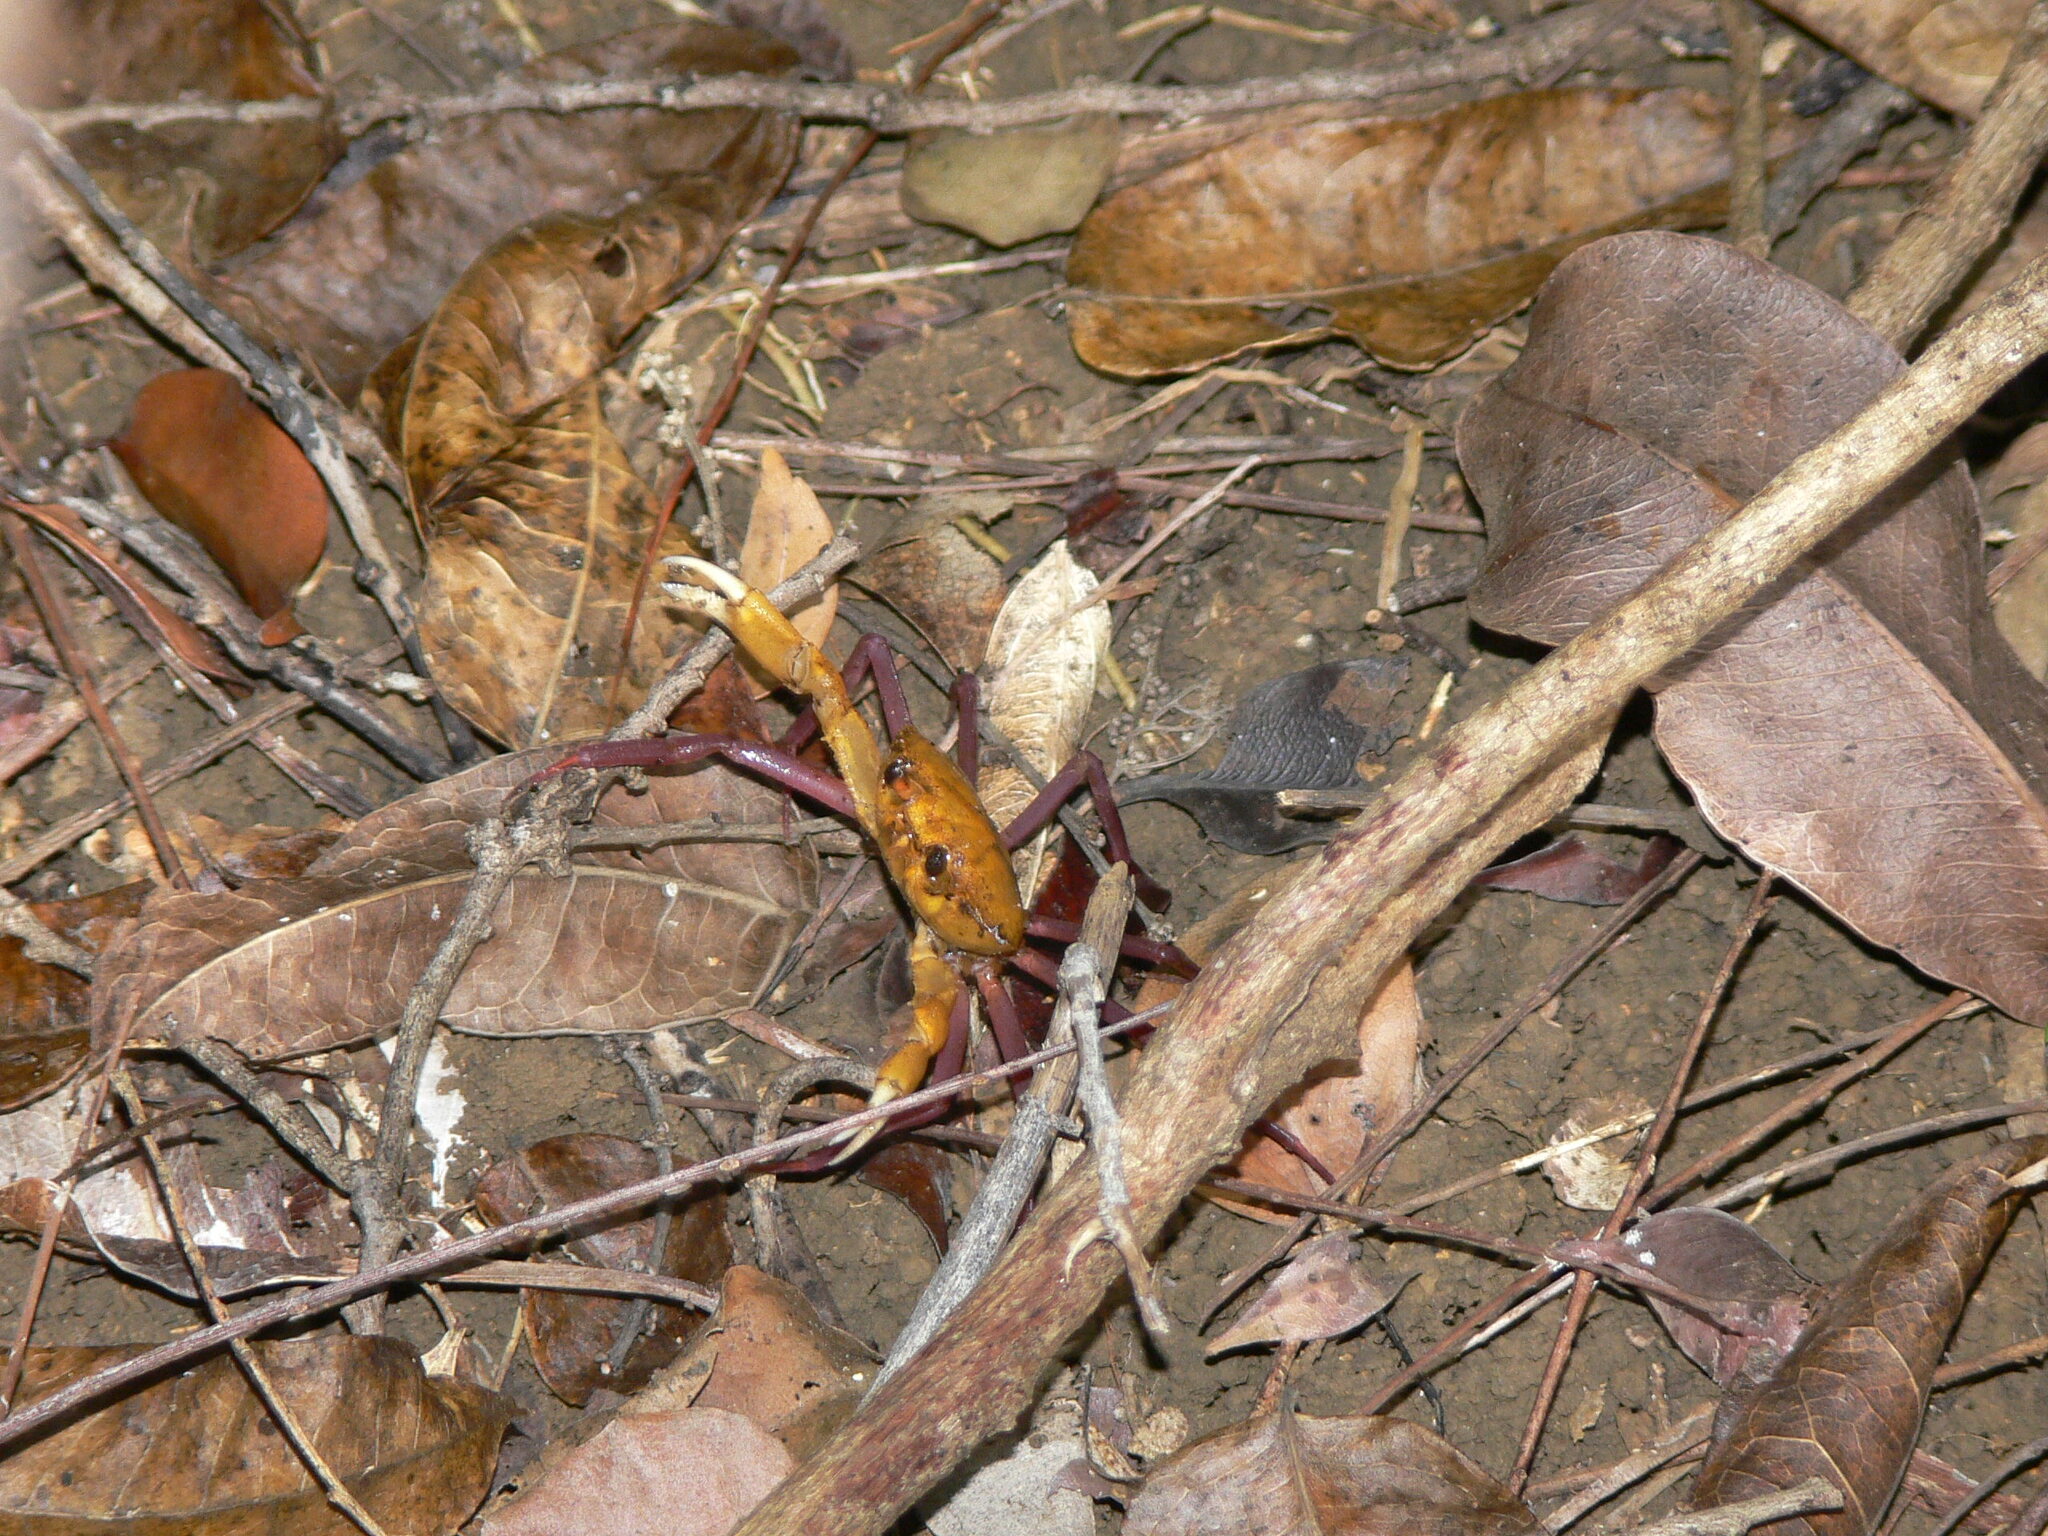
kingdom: Animalia
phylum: Arthropoda
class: Malacostraca
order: Decapoda
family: Deckeniidae
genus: Madagapotamon
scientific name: Madagapotamon humberti
